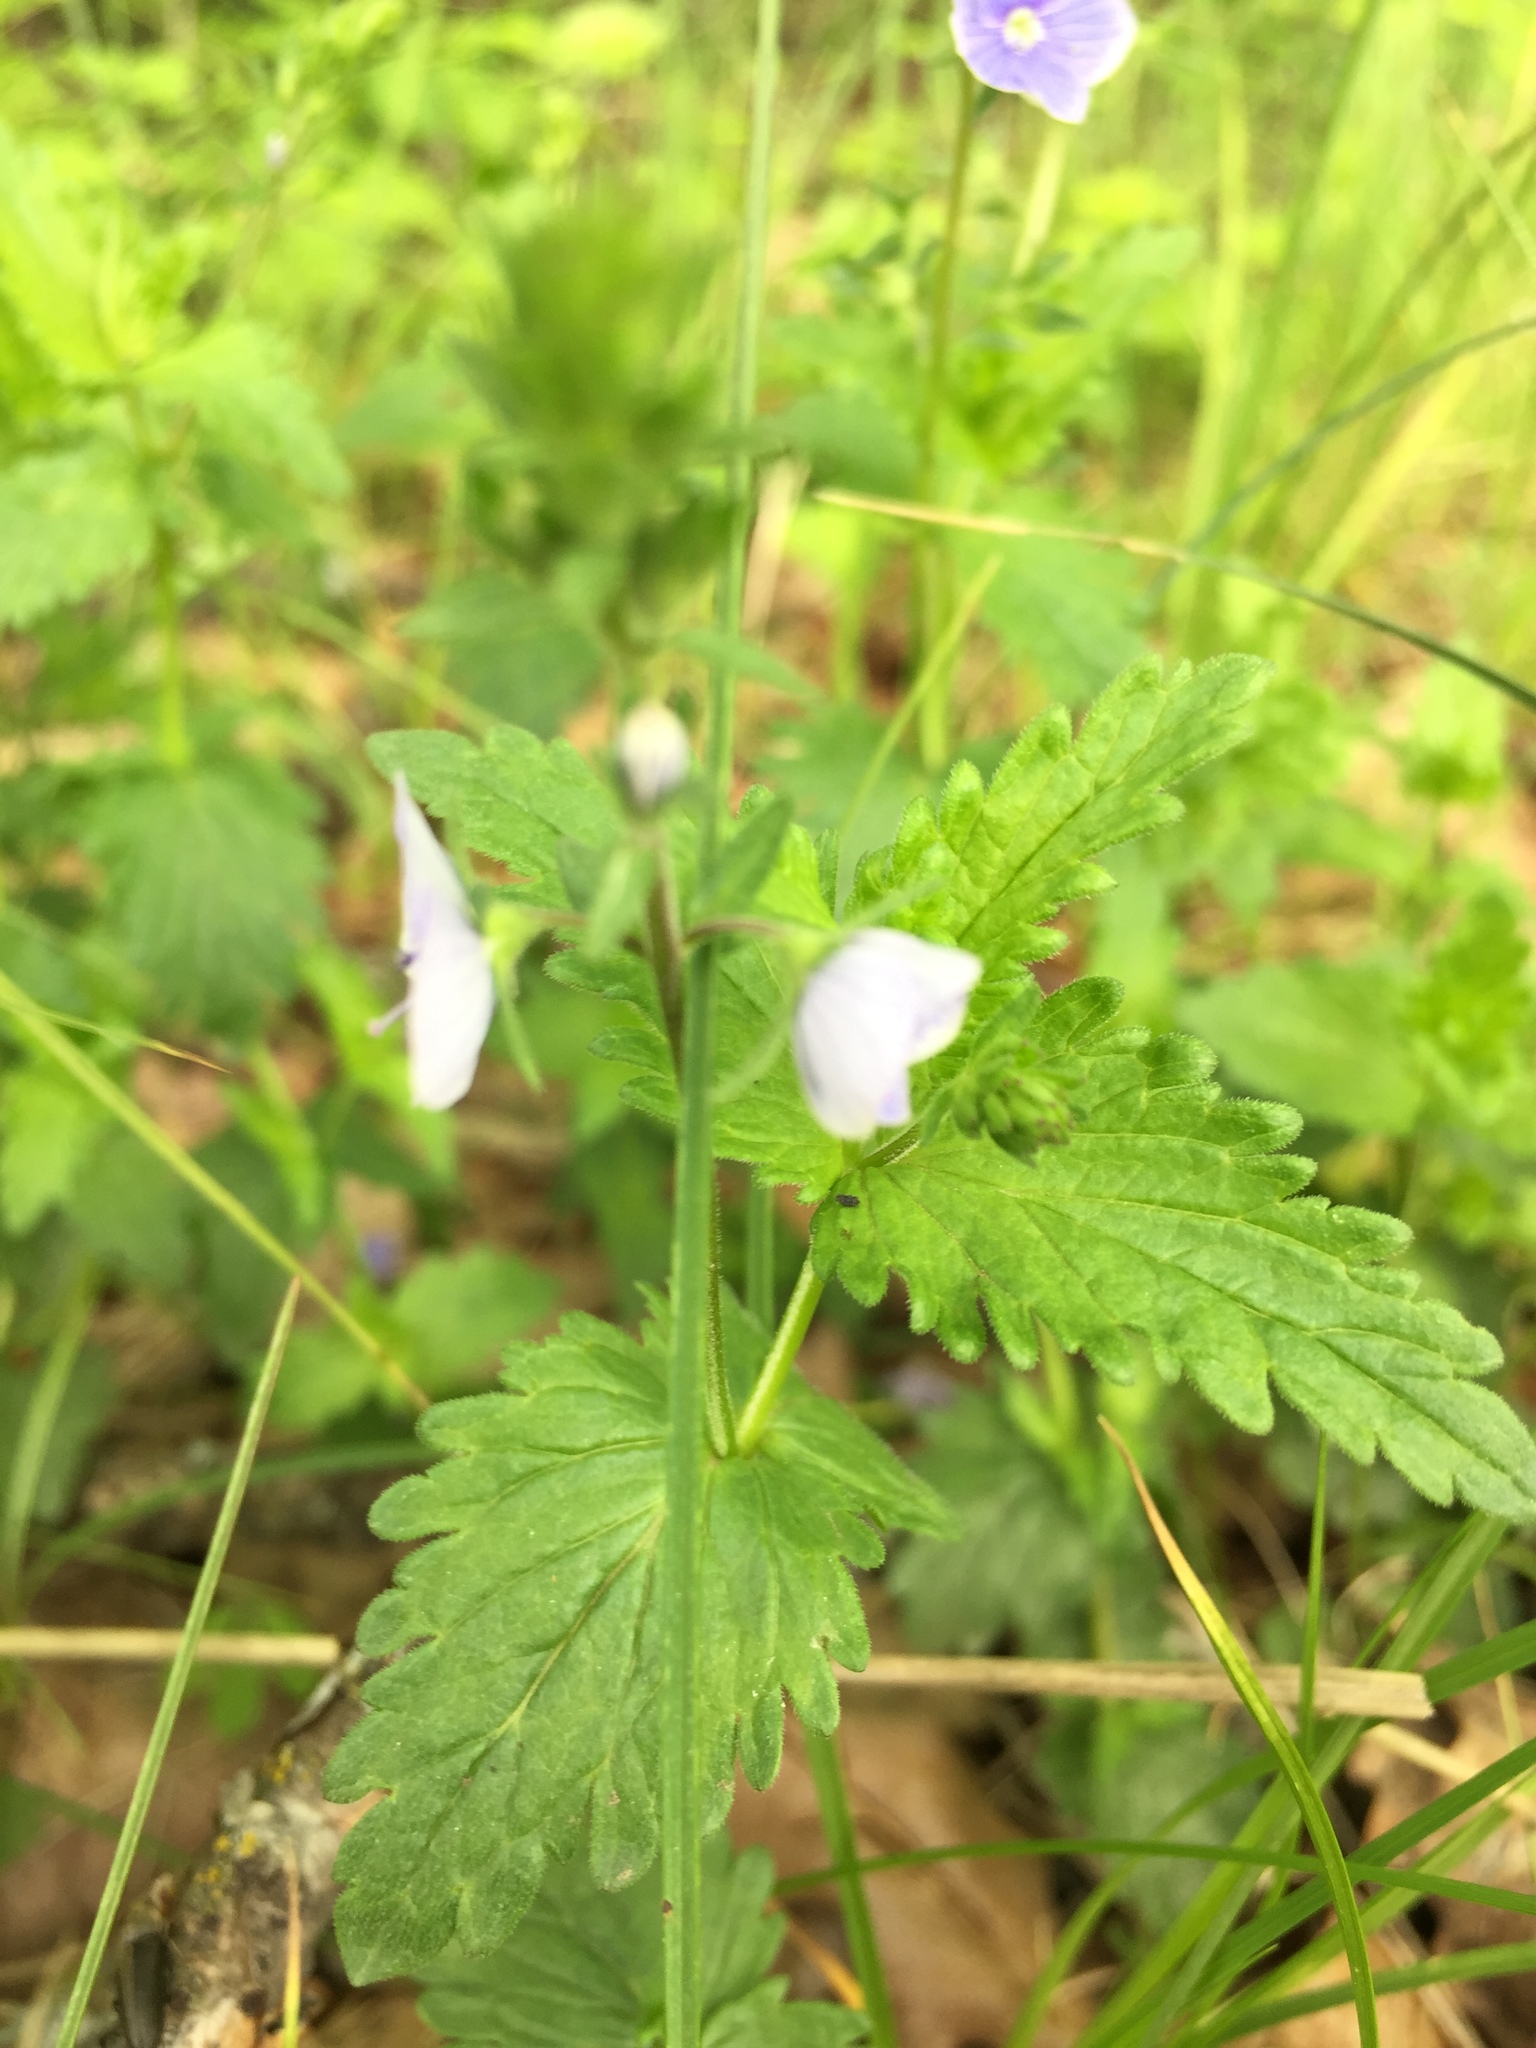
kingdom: Plantae
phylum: Tracheophyta
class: Magnoliopsida
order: Lamiales
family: Plantaginaceae
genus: Veronica
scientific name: Veronica chamaedrys
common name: Germander speedwell
